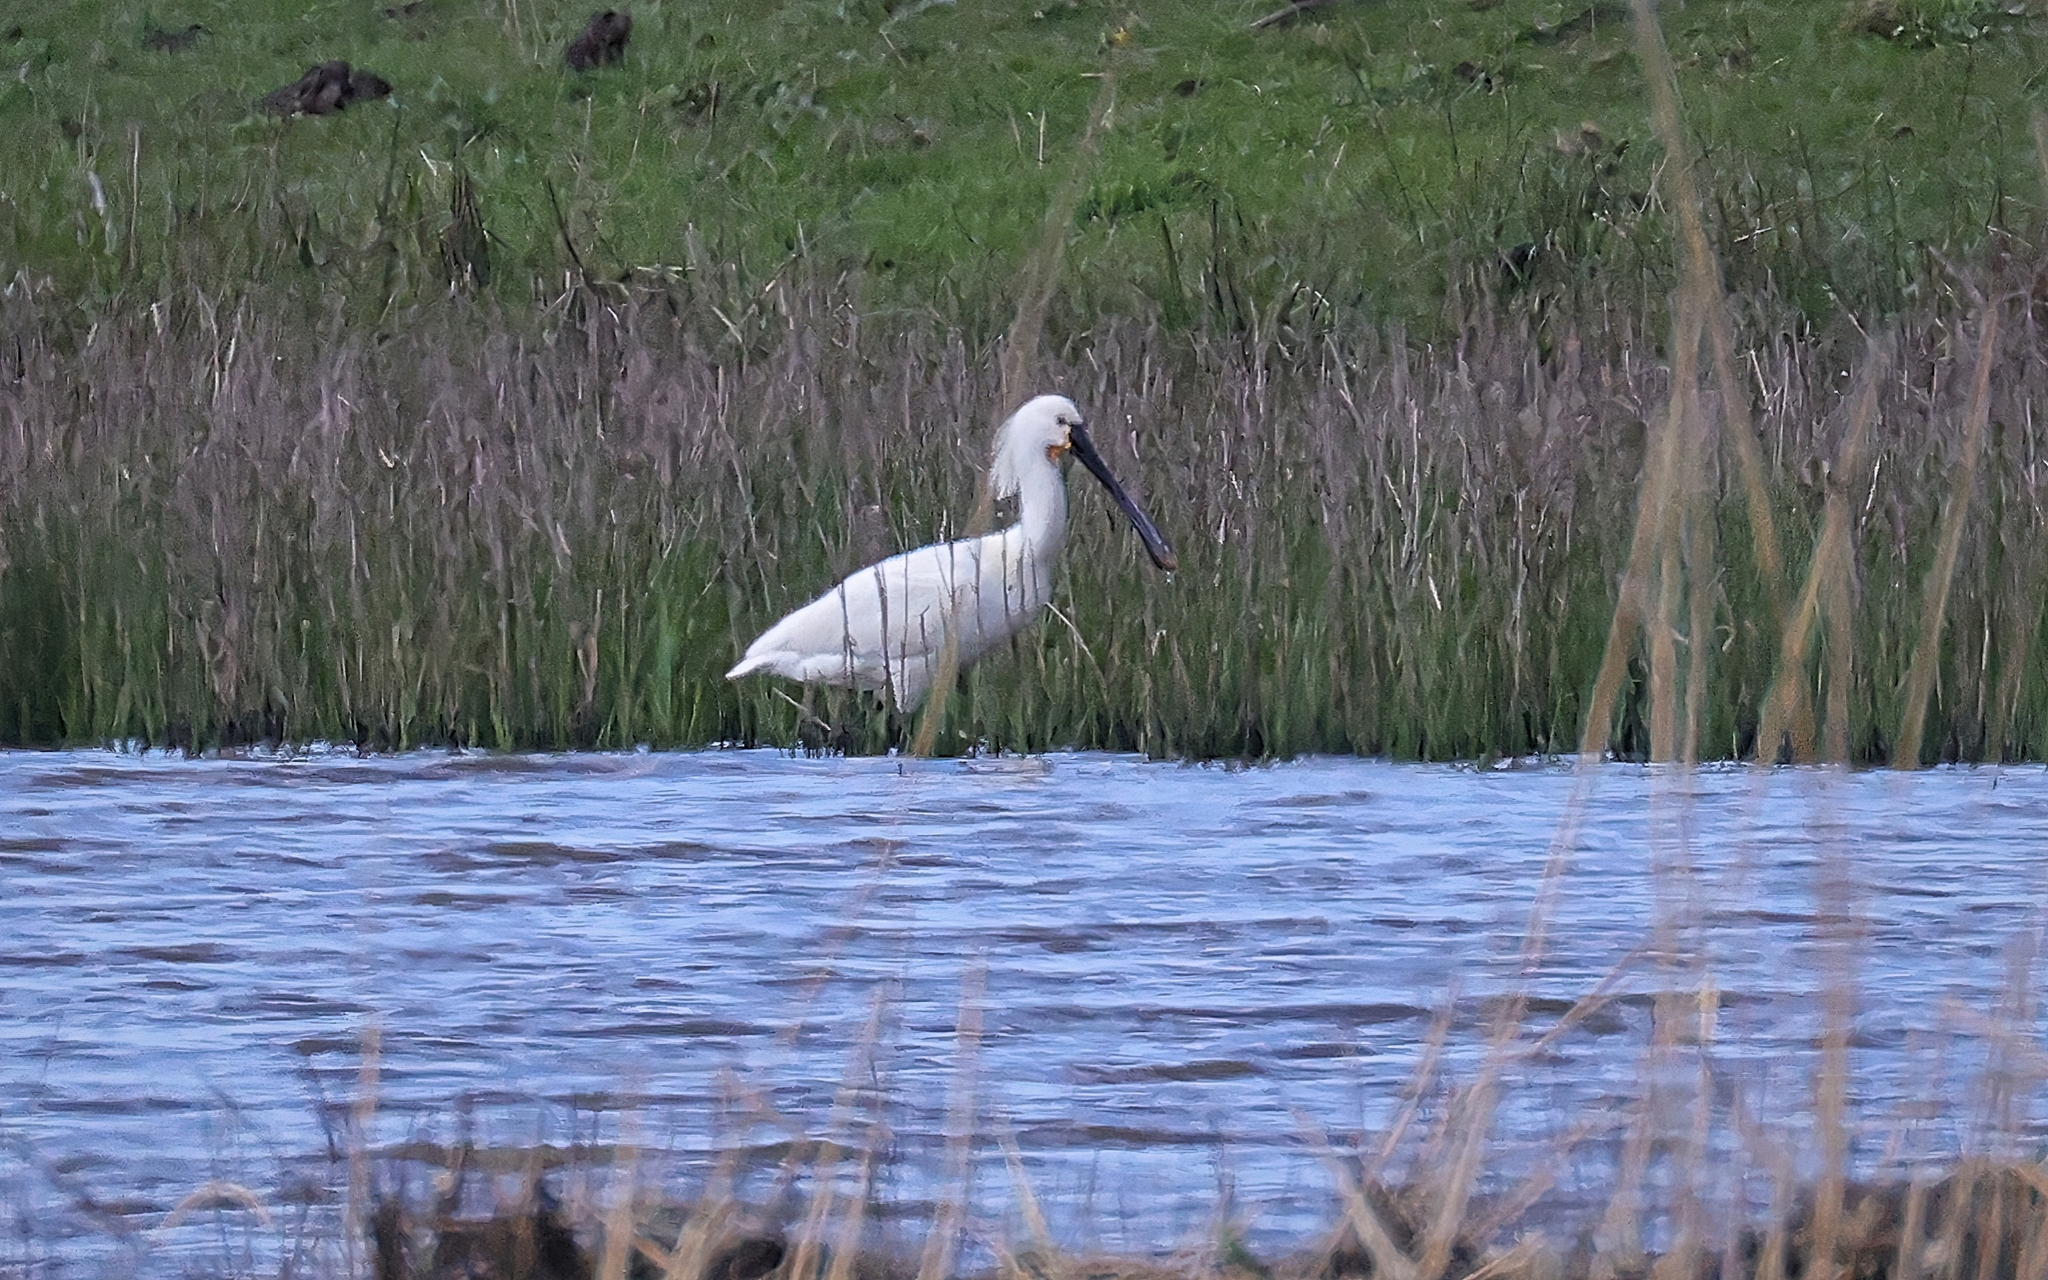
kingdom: Animalia
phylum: Chordata
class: Aves
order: Pelecaniformes
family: Threskiornithidae
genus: Platalea
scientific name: Platalea leucorodia
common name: Eurasian spoonbill
